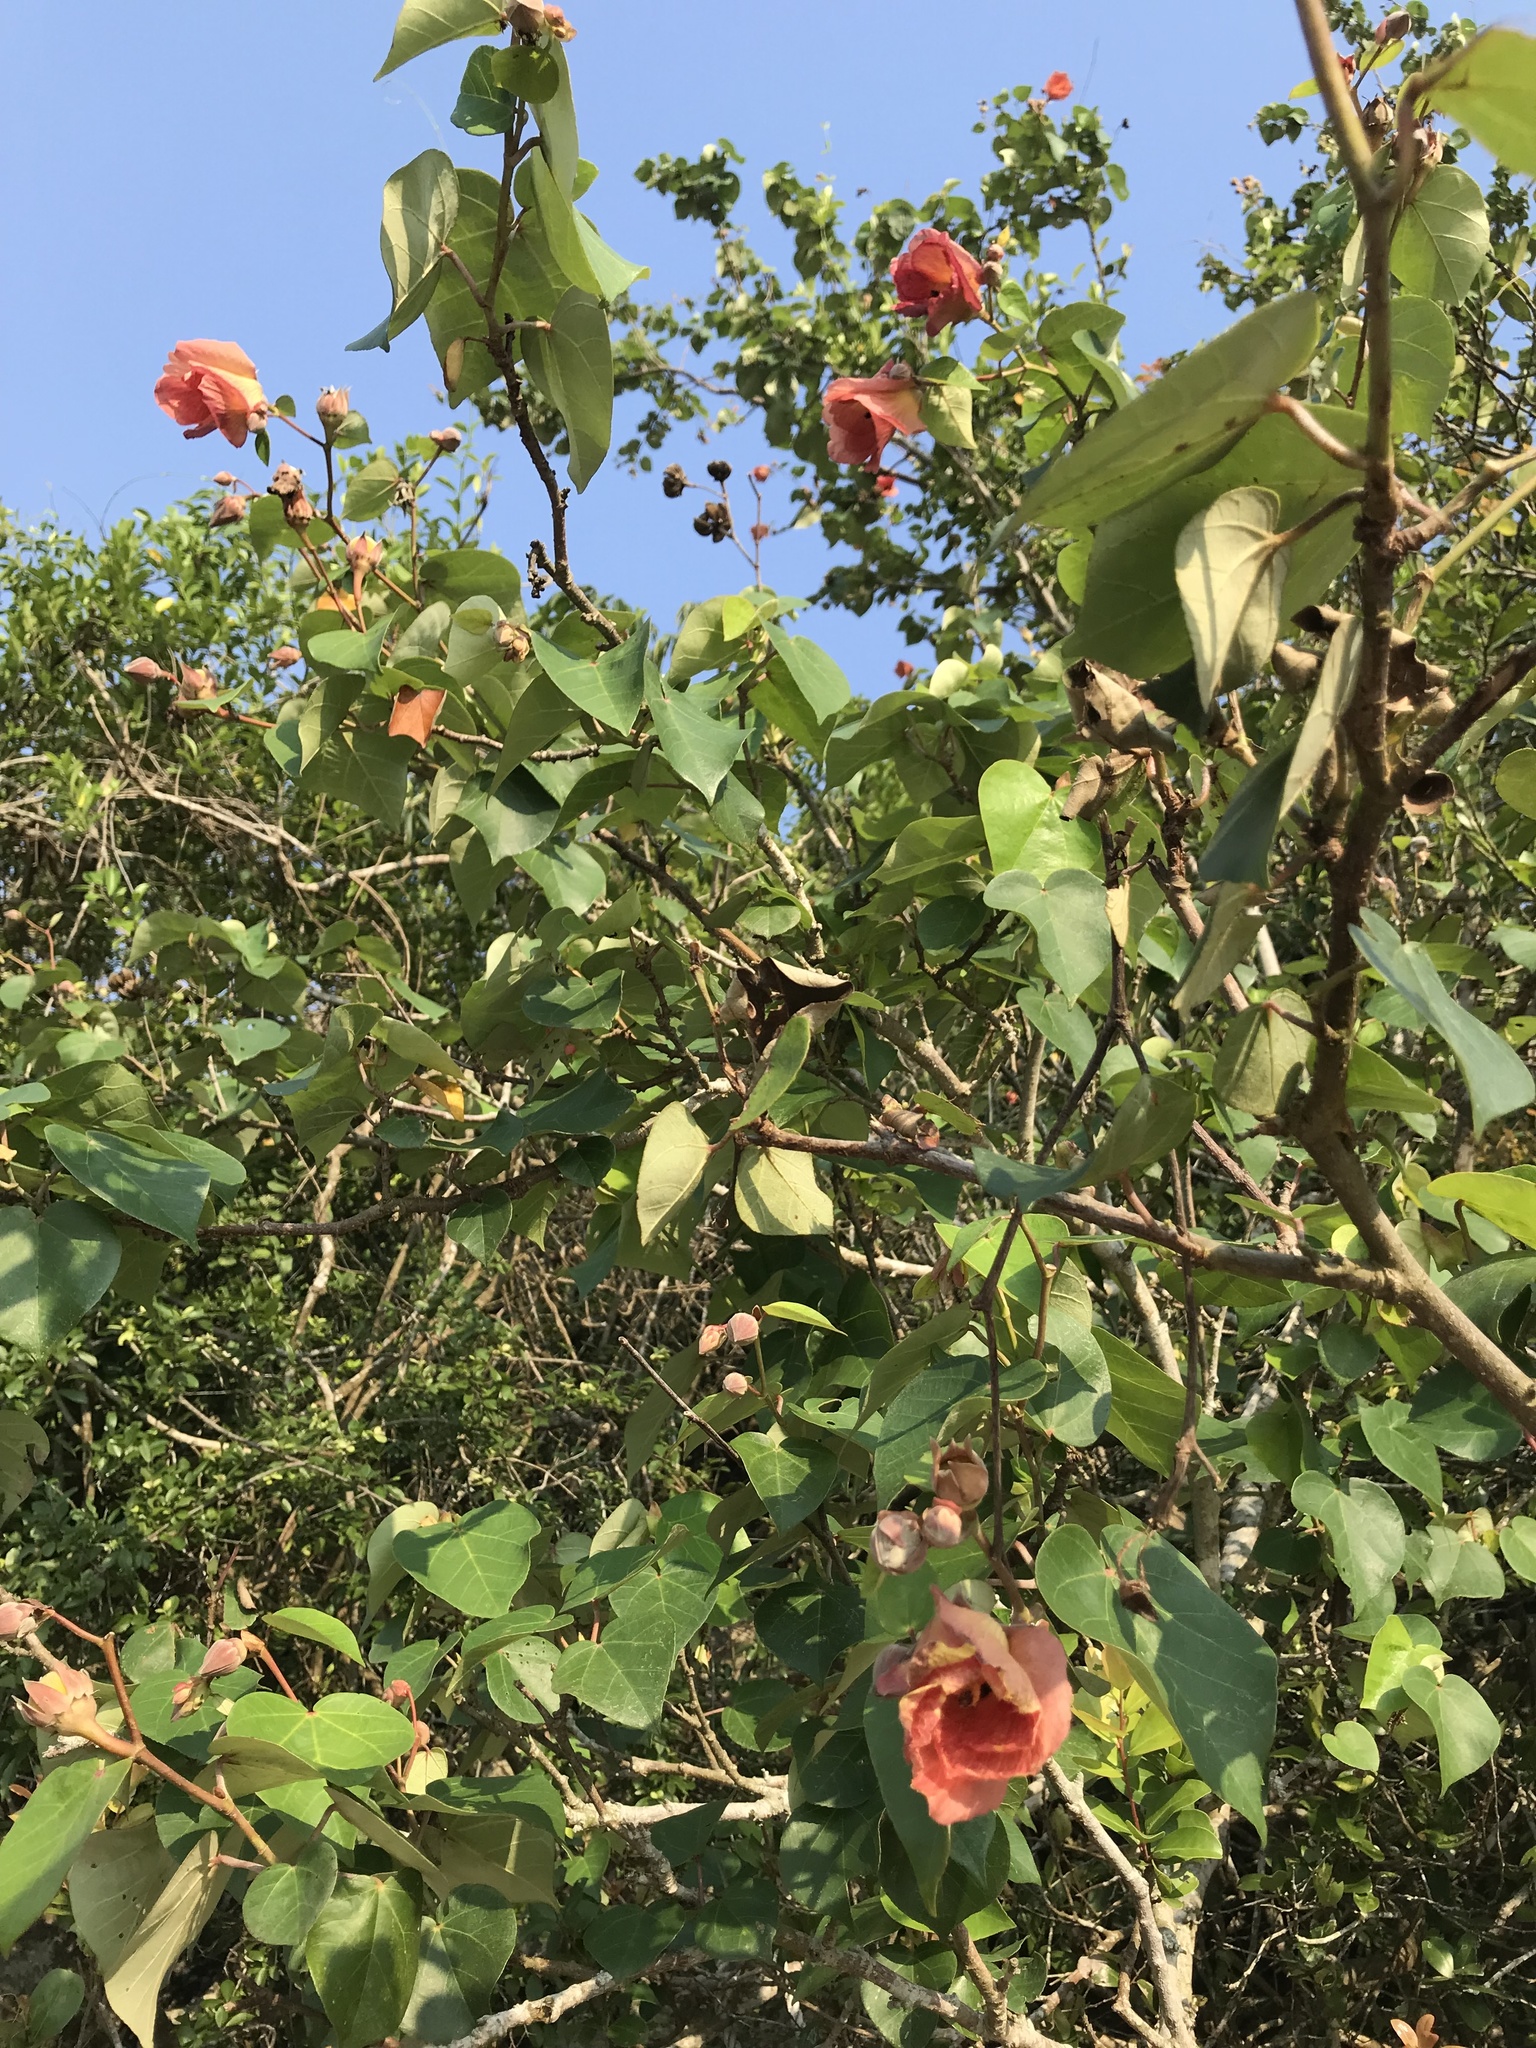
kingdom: Plantae
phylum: Tracheophyta
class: Magnoliopsida
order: Malvales
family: Malvaceae
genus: Talipariti
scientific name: Talipariti tiliaceum
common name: Sea hibiscus
